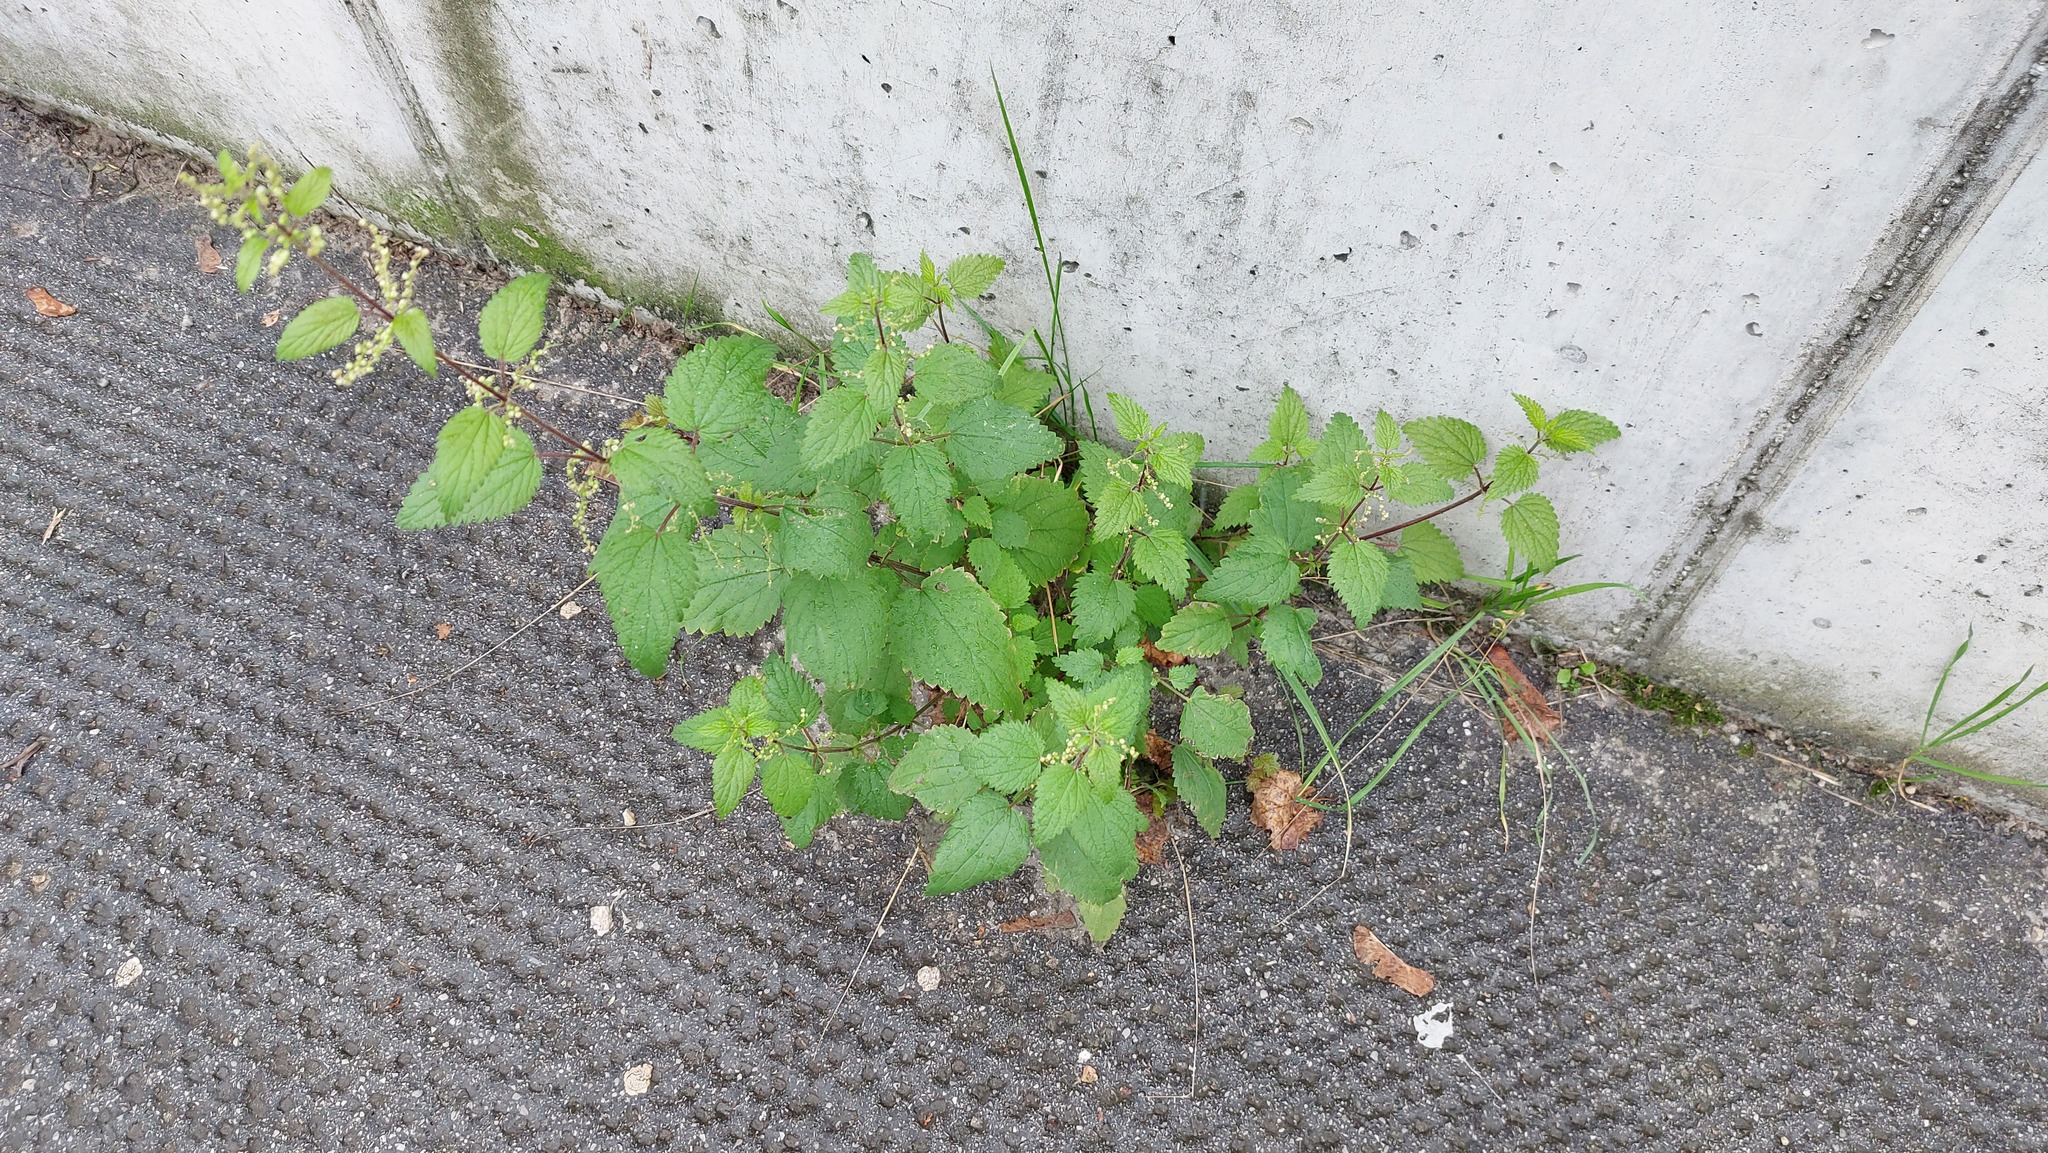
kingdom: Plantae
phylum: Tracheophyta
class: Magnoliopsida
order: Rosales
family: Urticaceae
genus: Urtica
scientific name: Urtica dioica
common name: Common nettle
